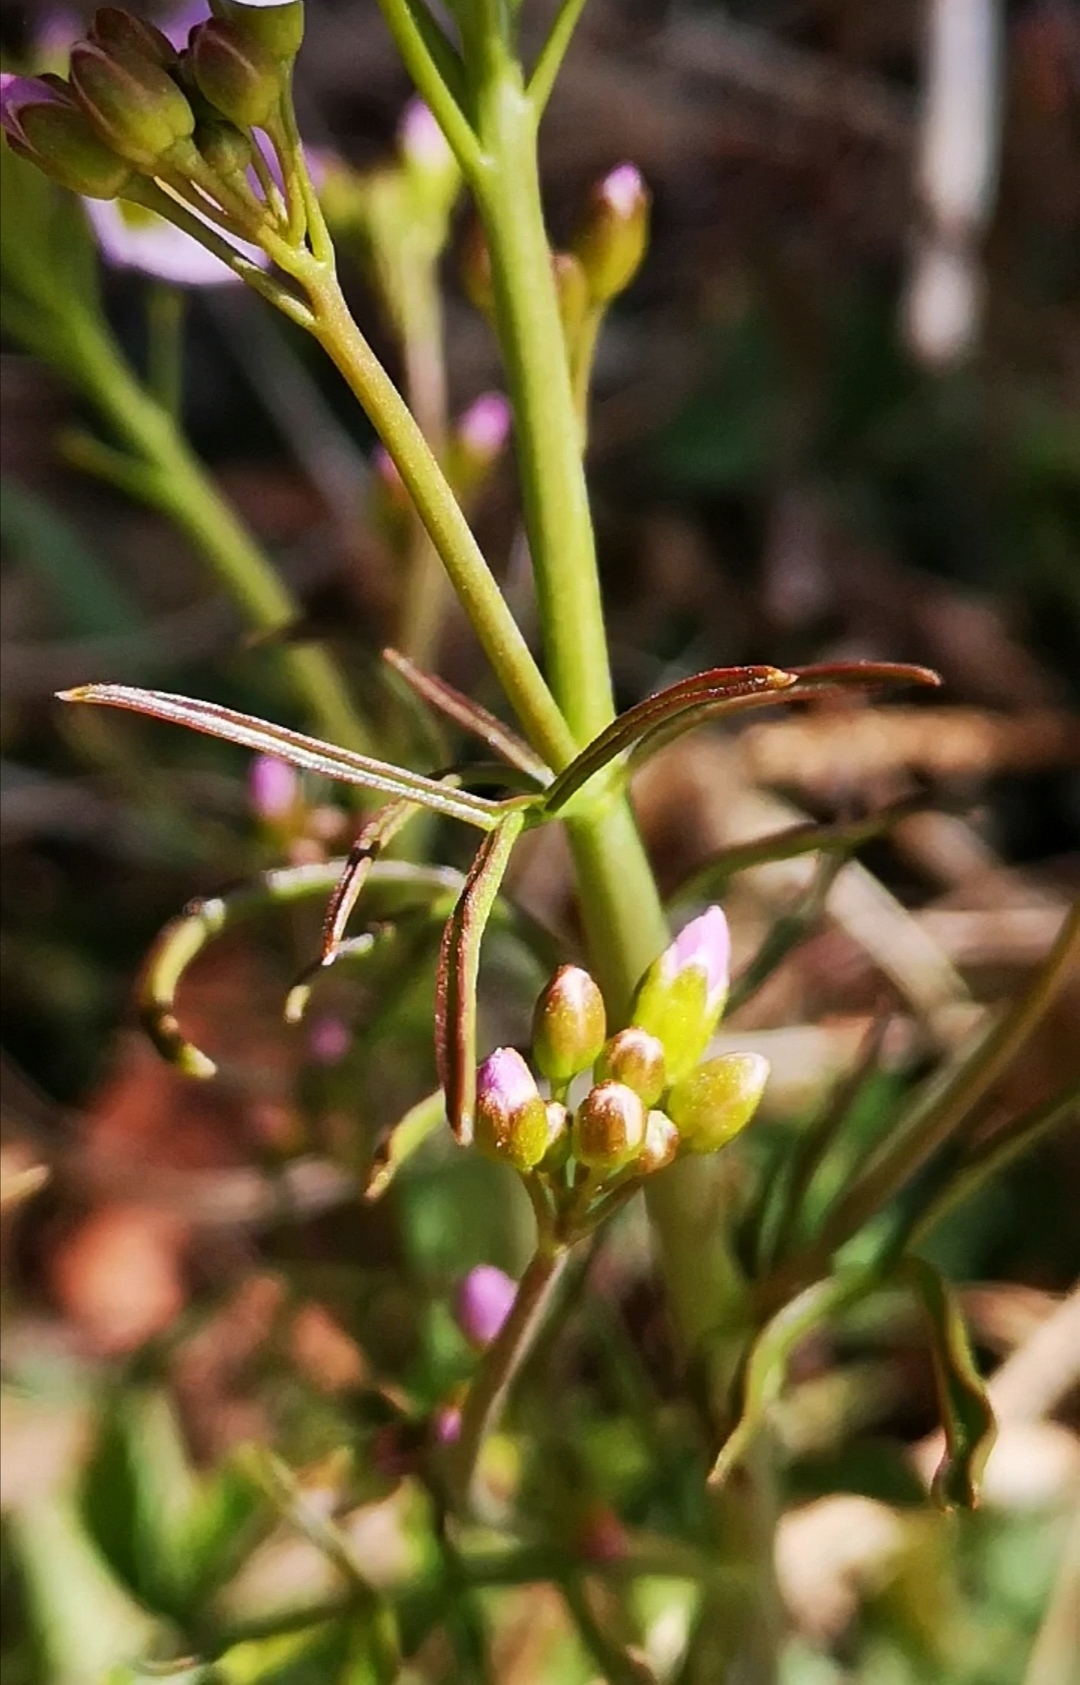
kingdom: Plantae
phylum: Tracheophyta
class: Magnoliopsida
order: Brassicales
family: Brassicaceae
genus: Cardamine
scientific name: Cardamine pratensis
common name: Cuckoo flower
